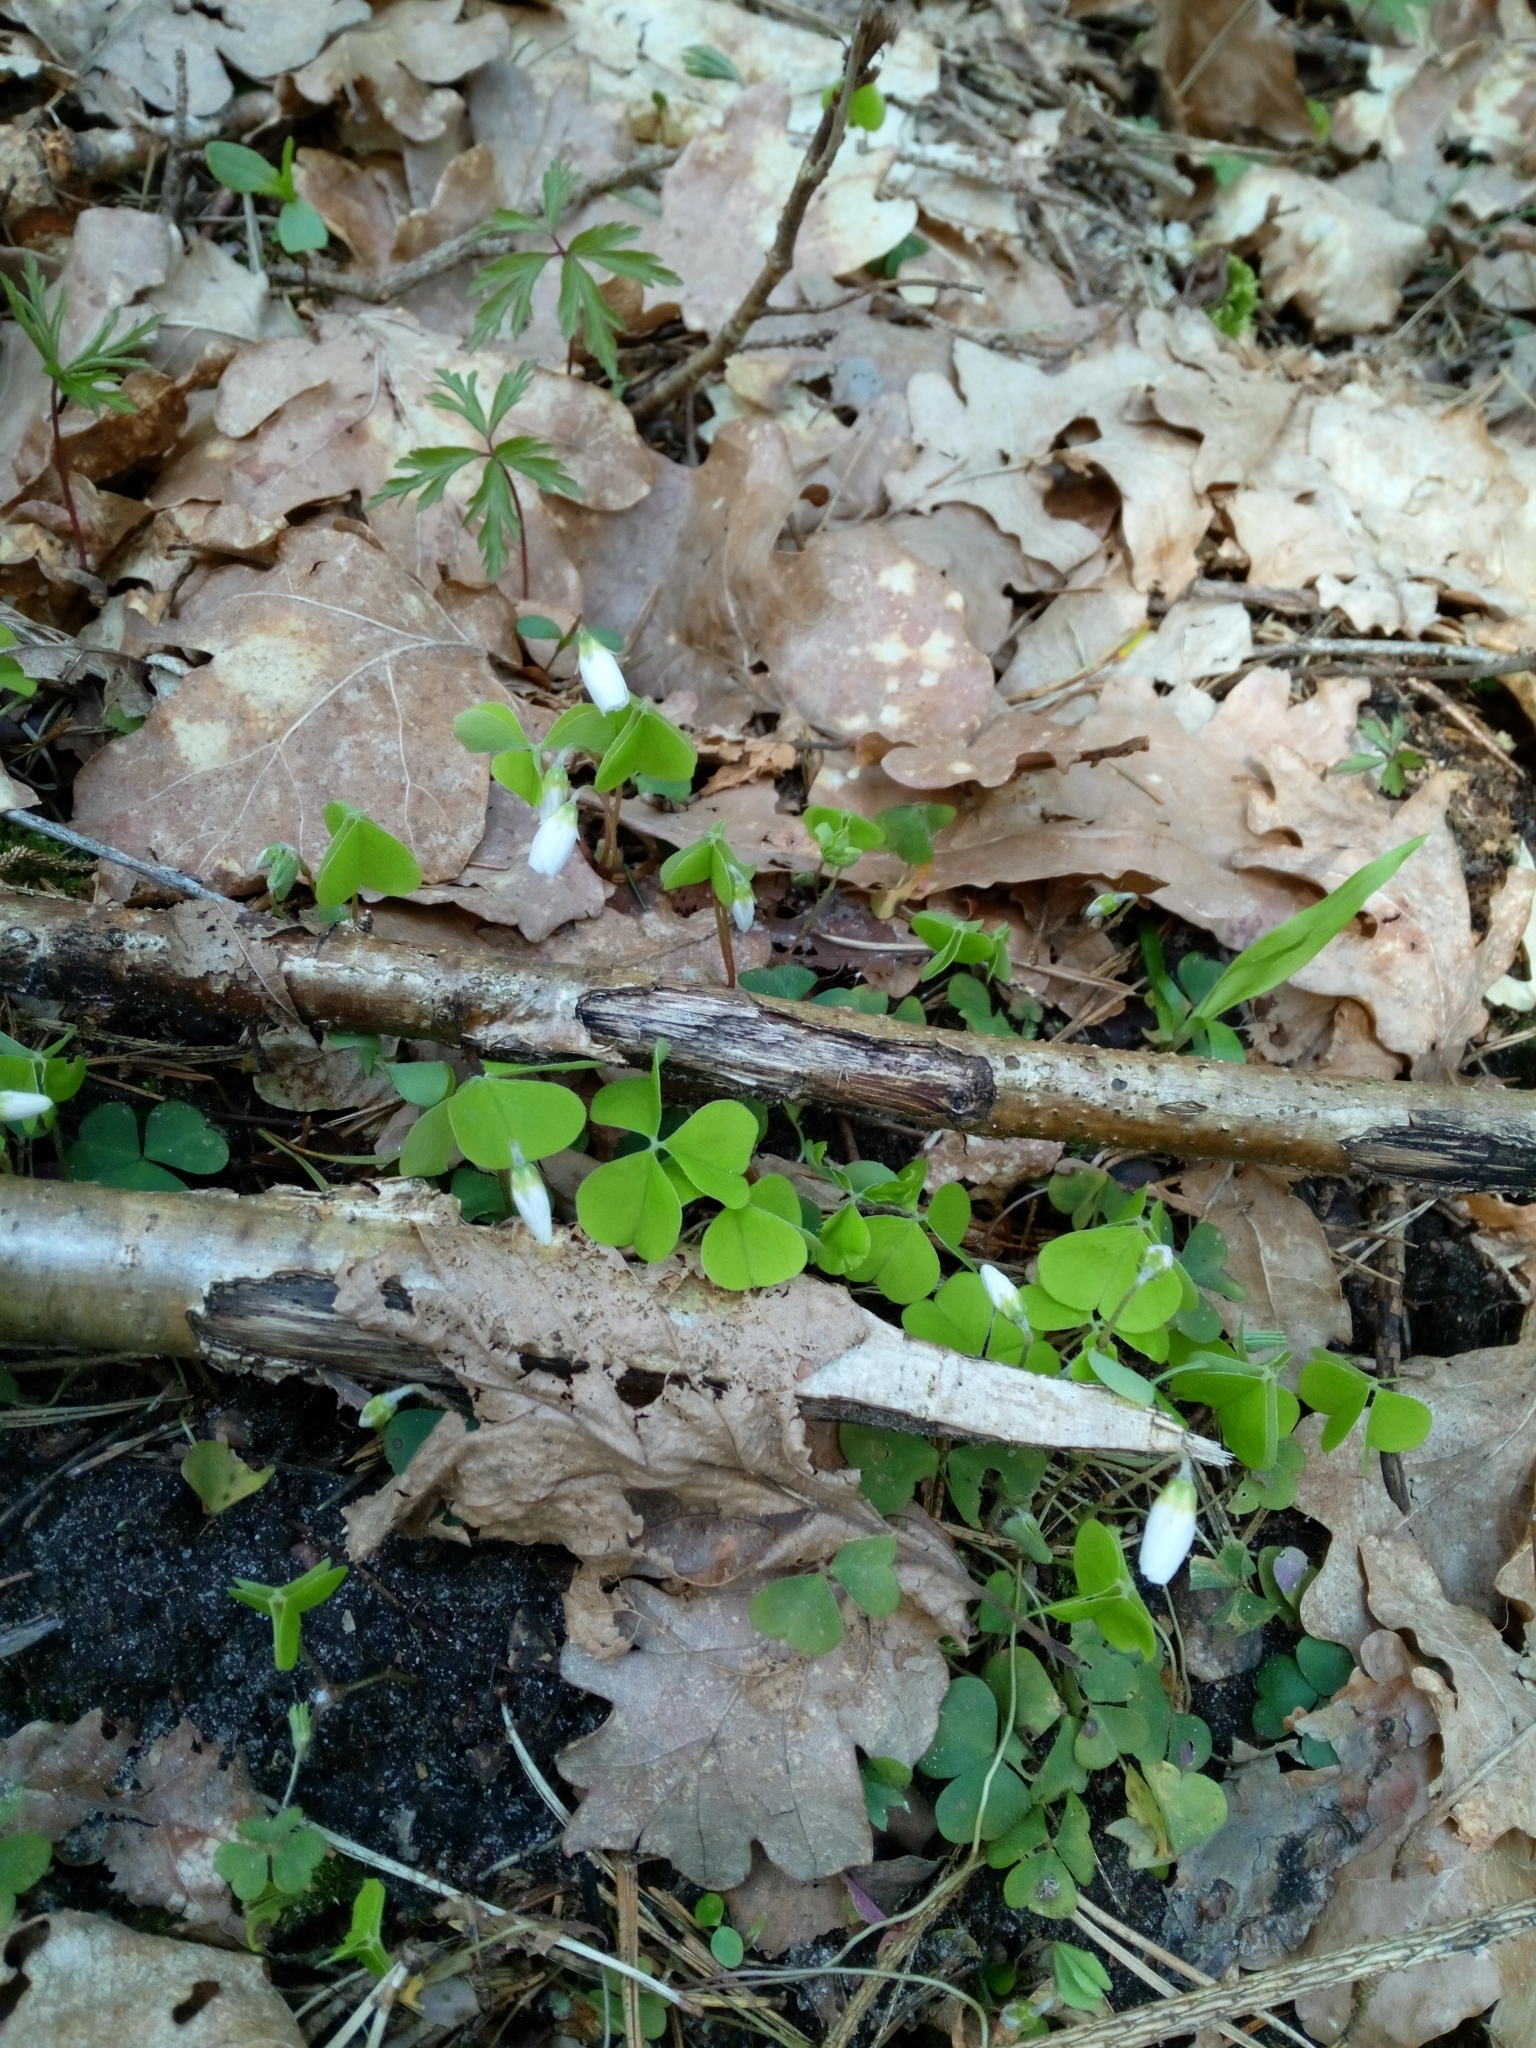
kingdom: Plantae
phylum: Tracheophyta
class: Magnoliopsida
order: Oxalidales
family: Oxalidaceae
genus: Oxalis
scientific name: Oxalis acetosella
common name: Wood-sorrel
